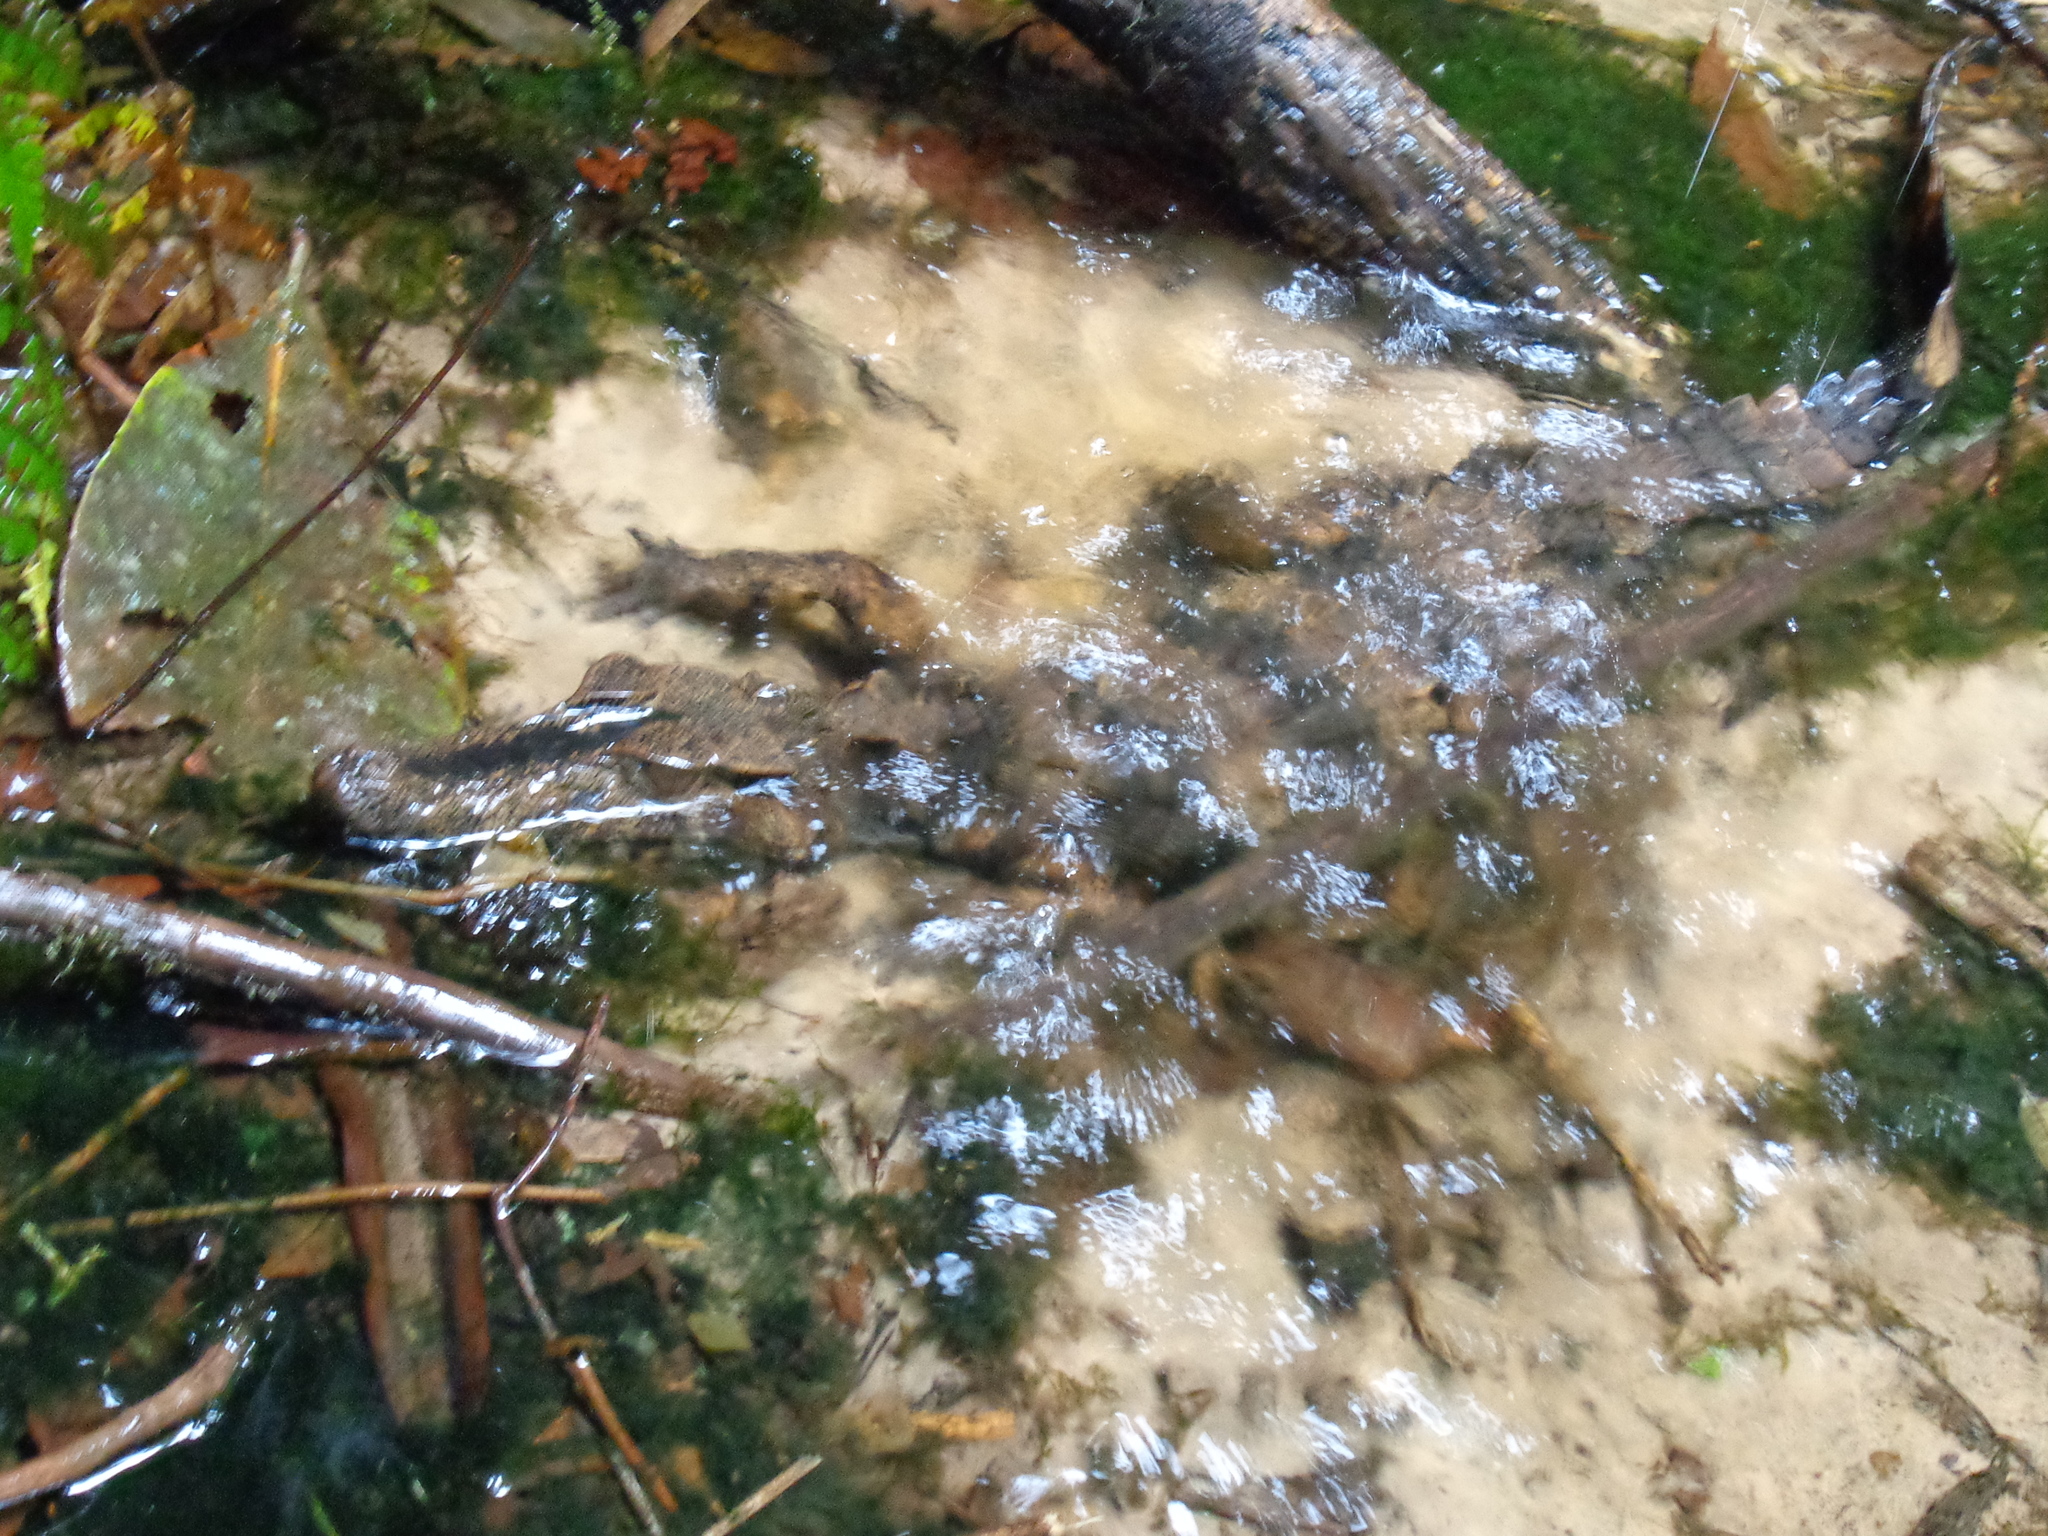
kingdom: Animalia
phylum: Chordata
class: Crocodylia
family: Alligatoridae
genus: Paleosuchus
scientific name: Paleosuchus trigonatus
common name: Schneider's smooth-fronted caiman
